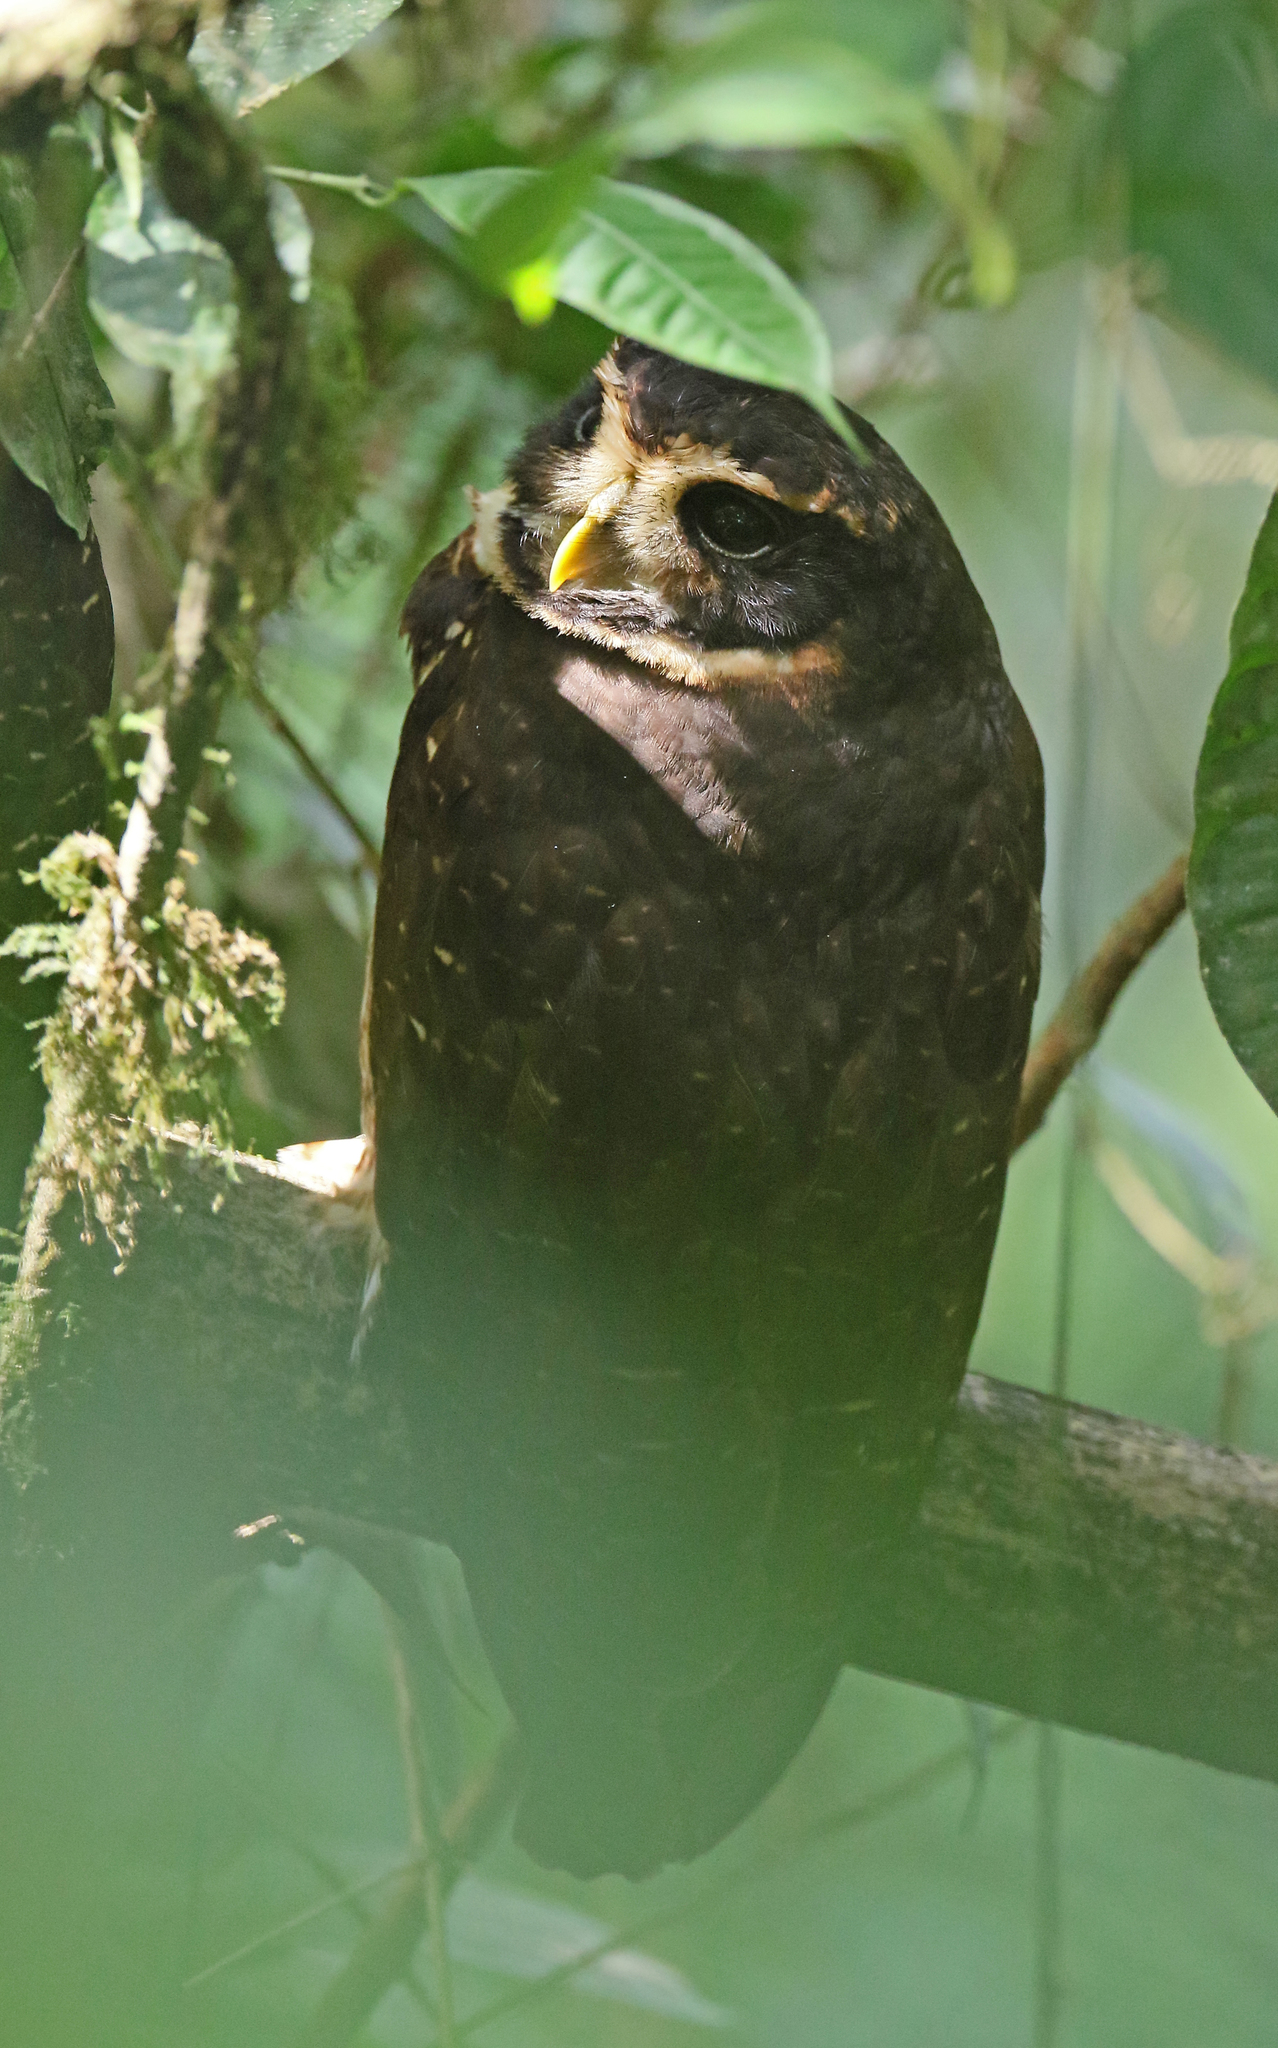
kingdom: Animalia
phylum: Chordata
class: Aves
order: Strigiformes
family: Strigidae
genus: Pulsatrix
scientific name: Pulsatrix melanota
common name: Band-bellied owl
